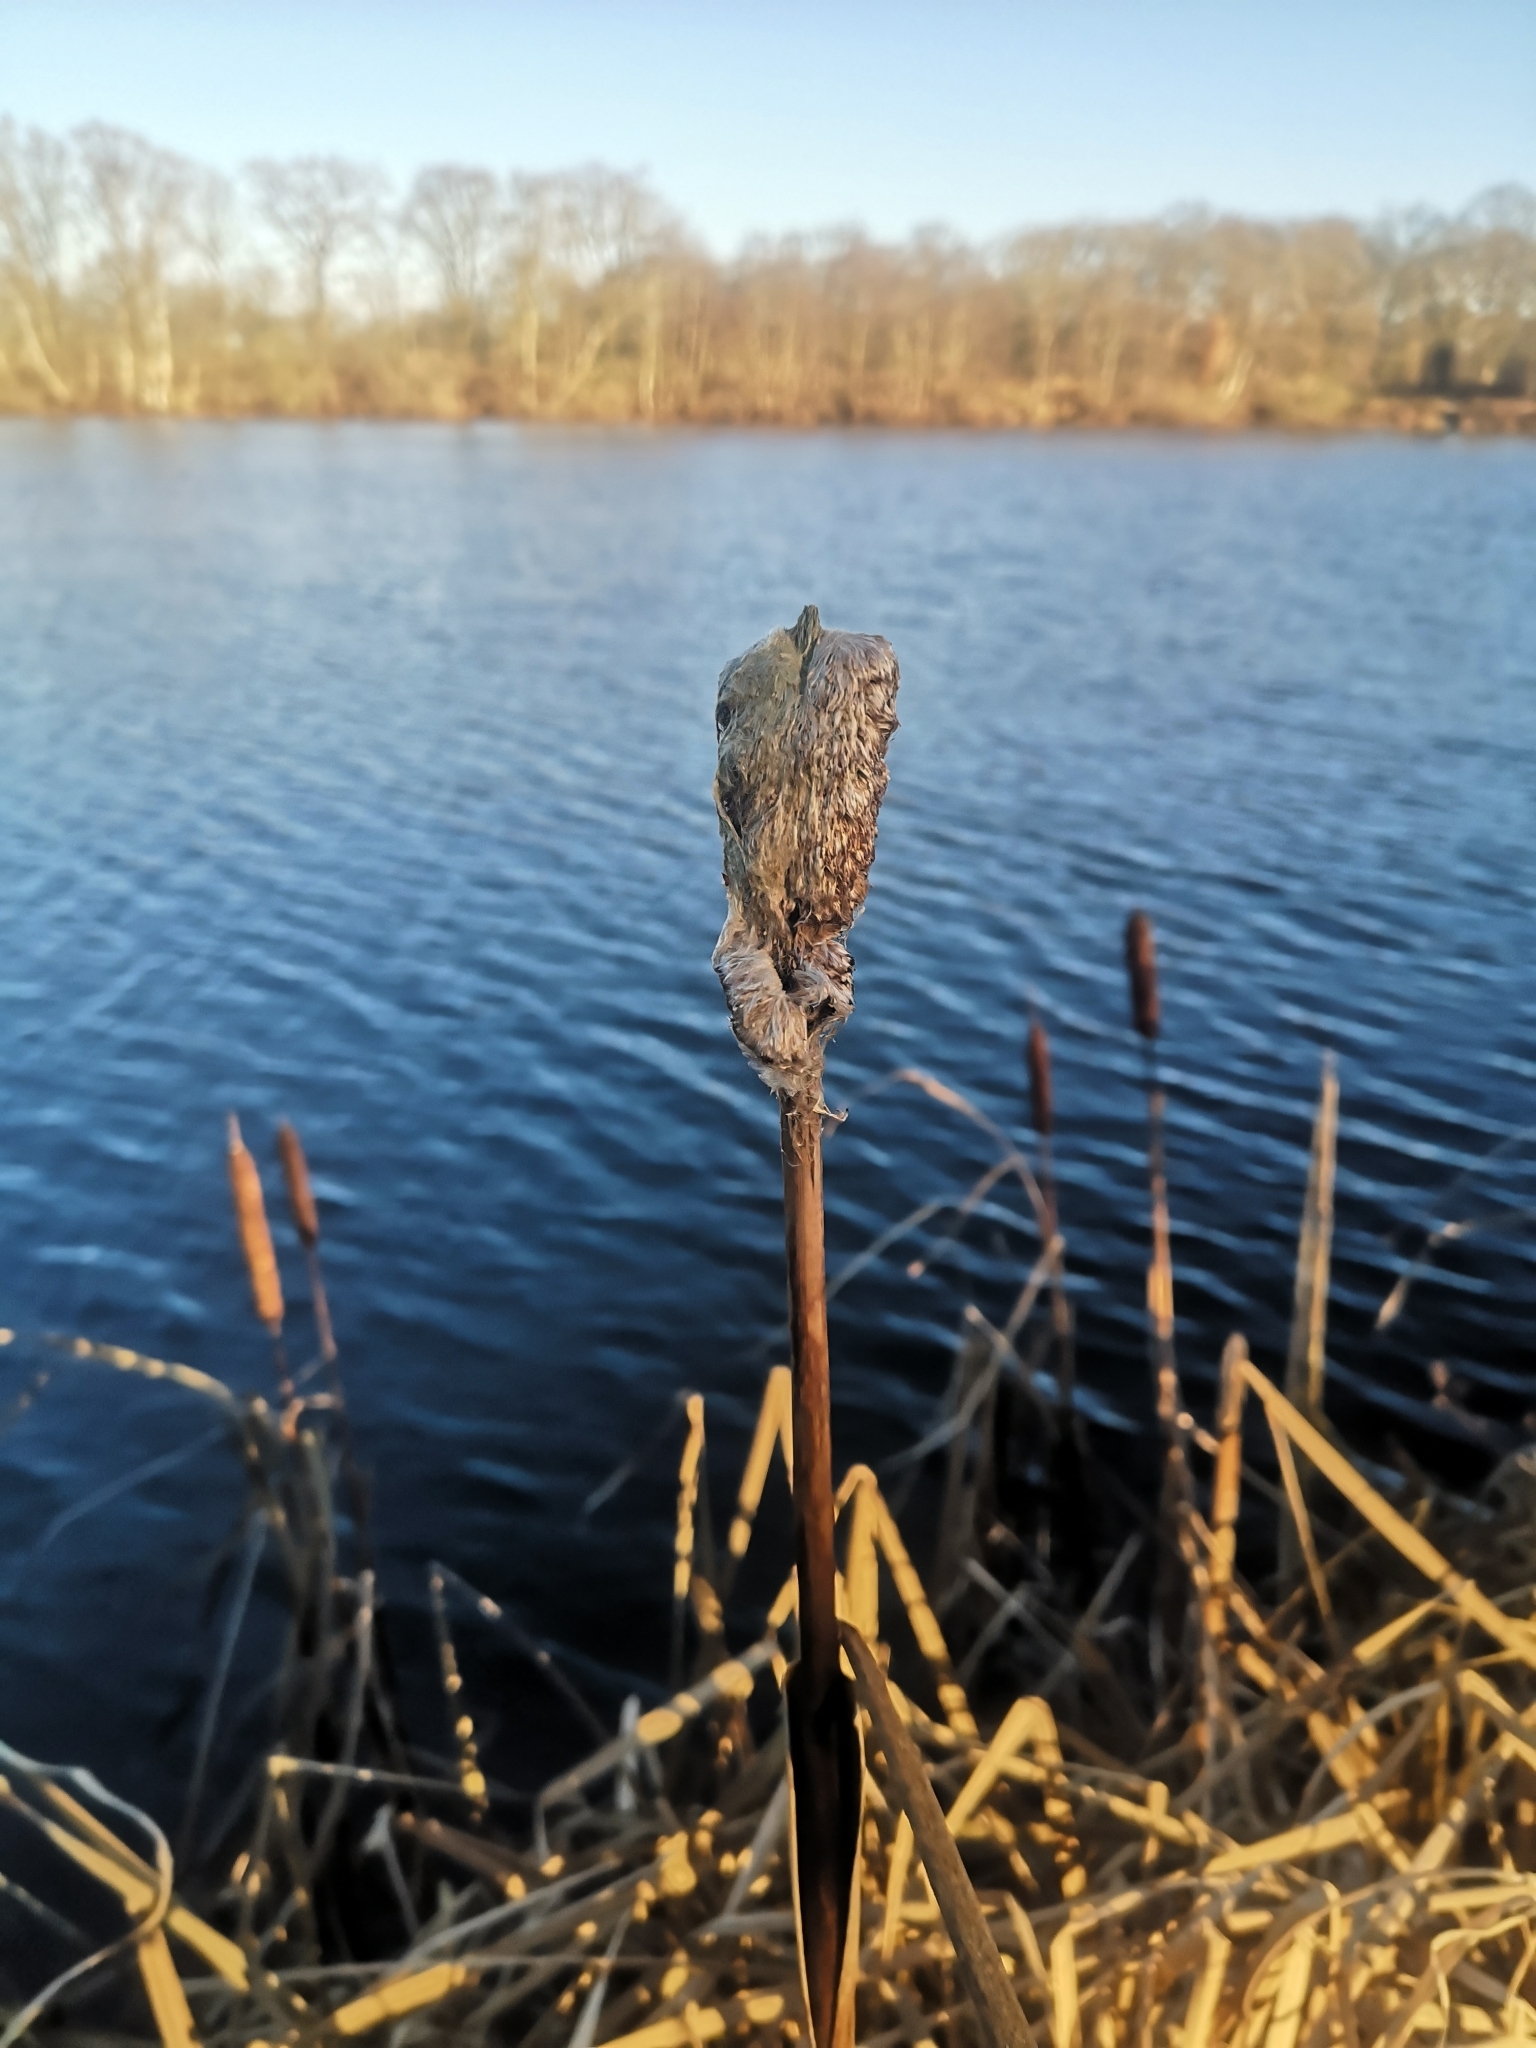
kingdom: Plantae
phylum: Tracheophyta
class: Liliopsida
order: Poales
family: Typhaceae
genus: Typha
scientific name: Typha latifolia
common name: Broadleaf cattail
